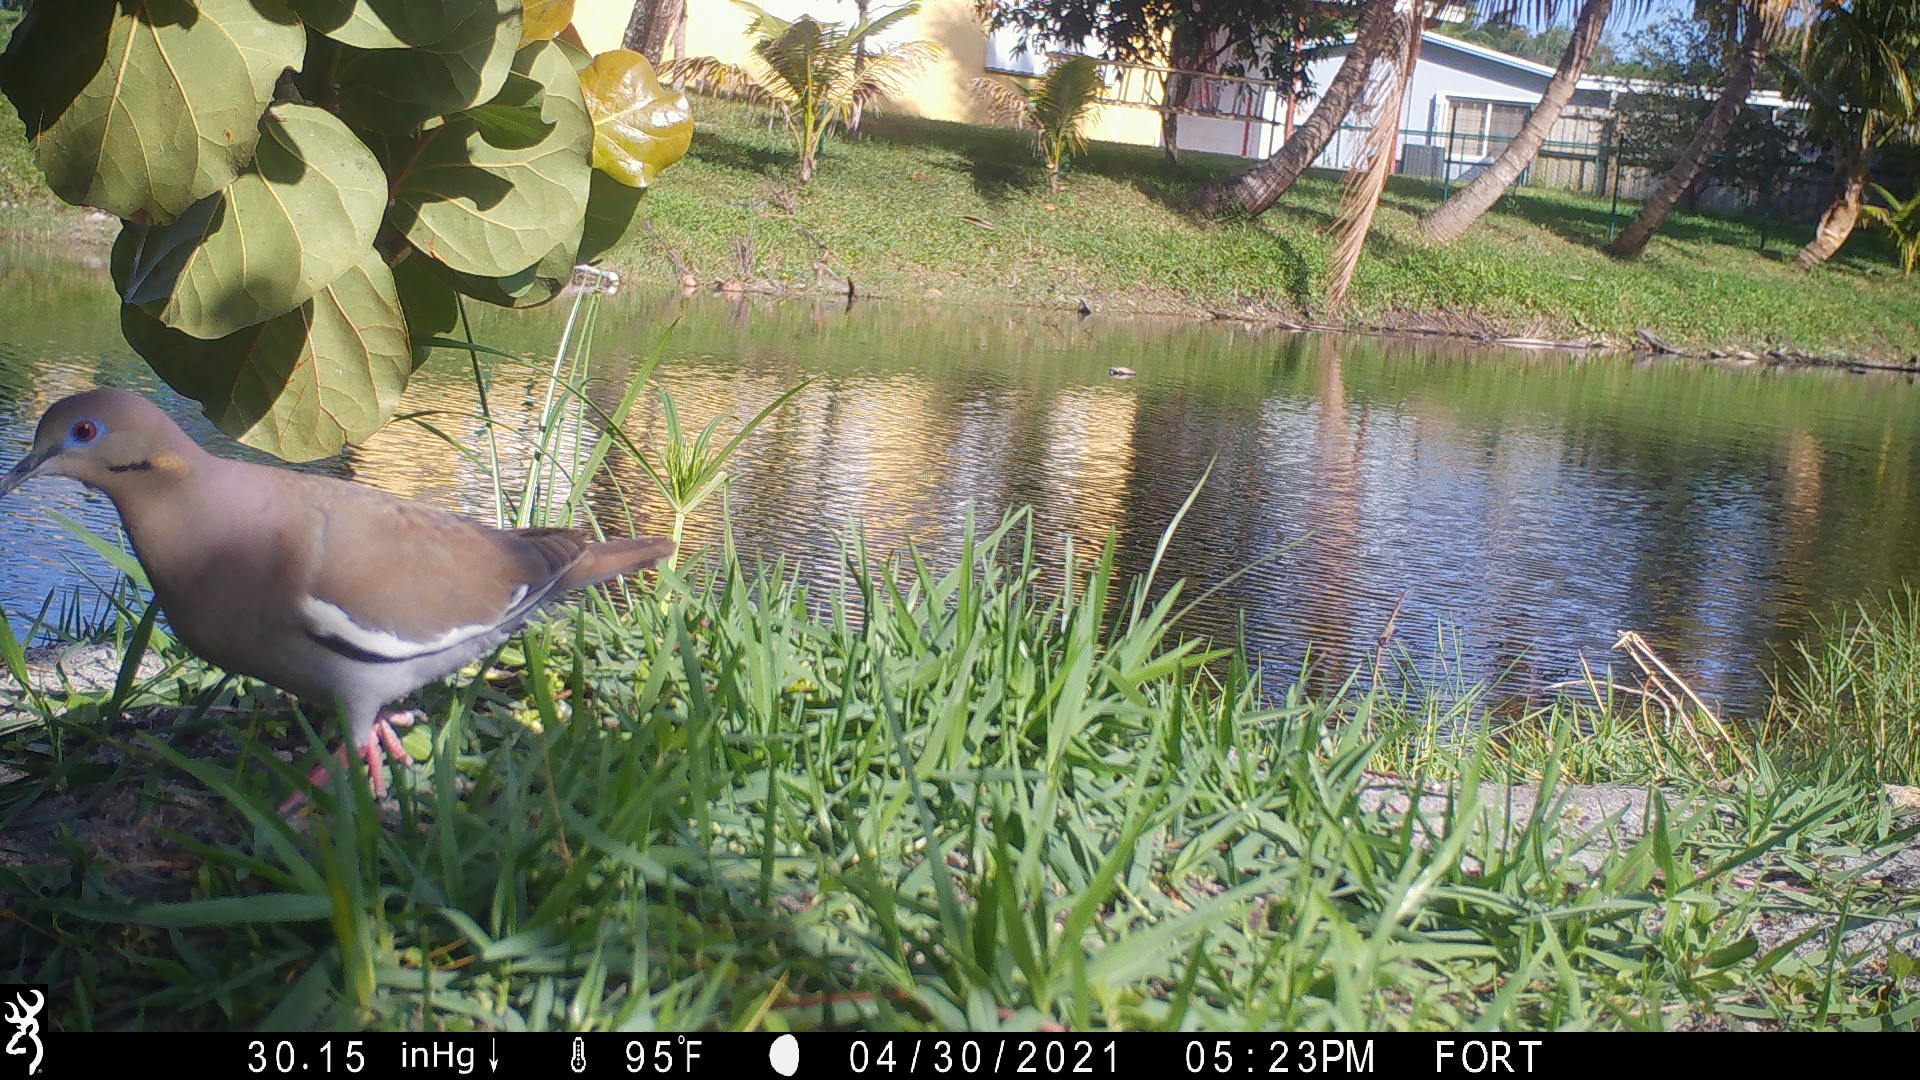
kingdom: Animalia
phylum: Chordata
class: Aves
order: Columbiformes
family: Columbidae
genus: Zenaida
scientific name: Zenaida asiatica
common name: White-winged dove
